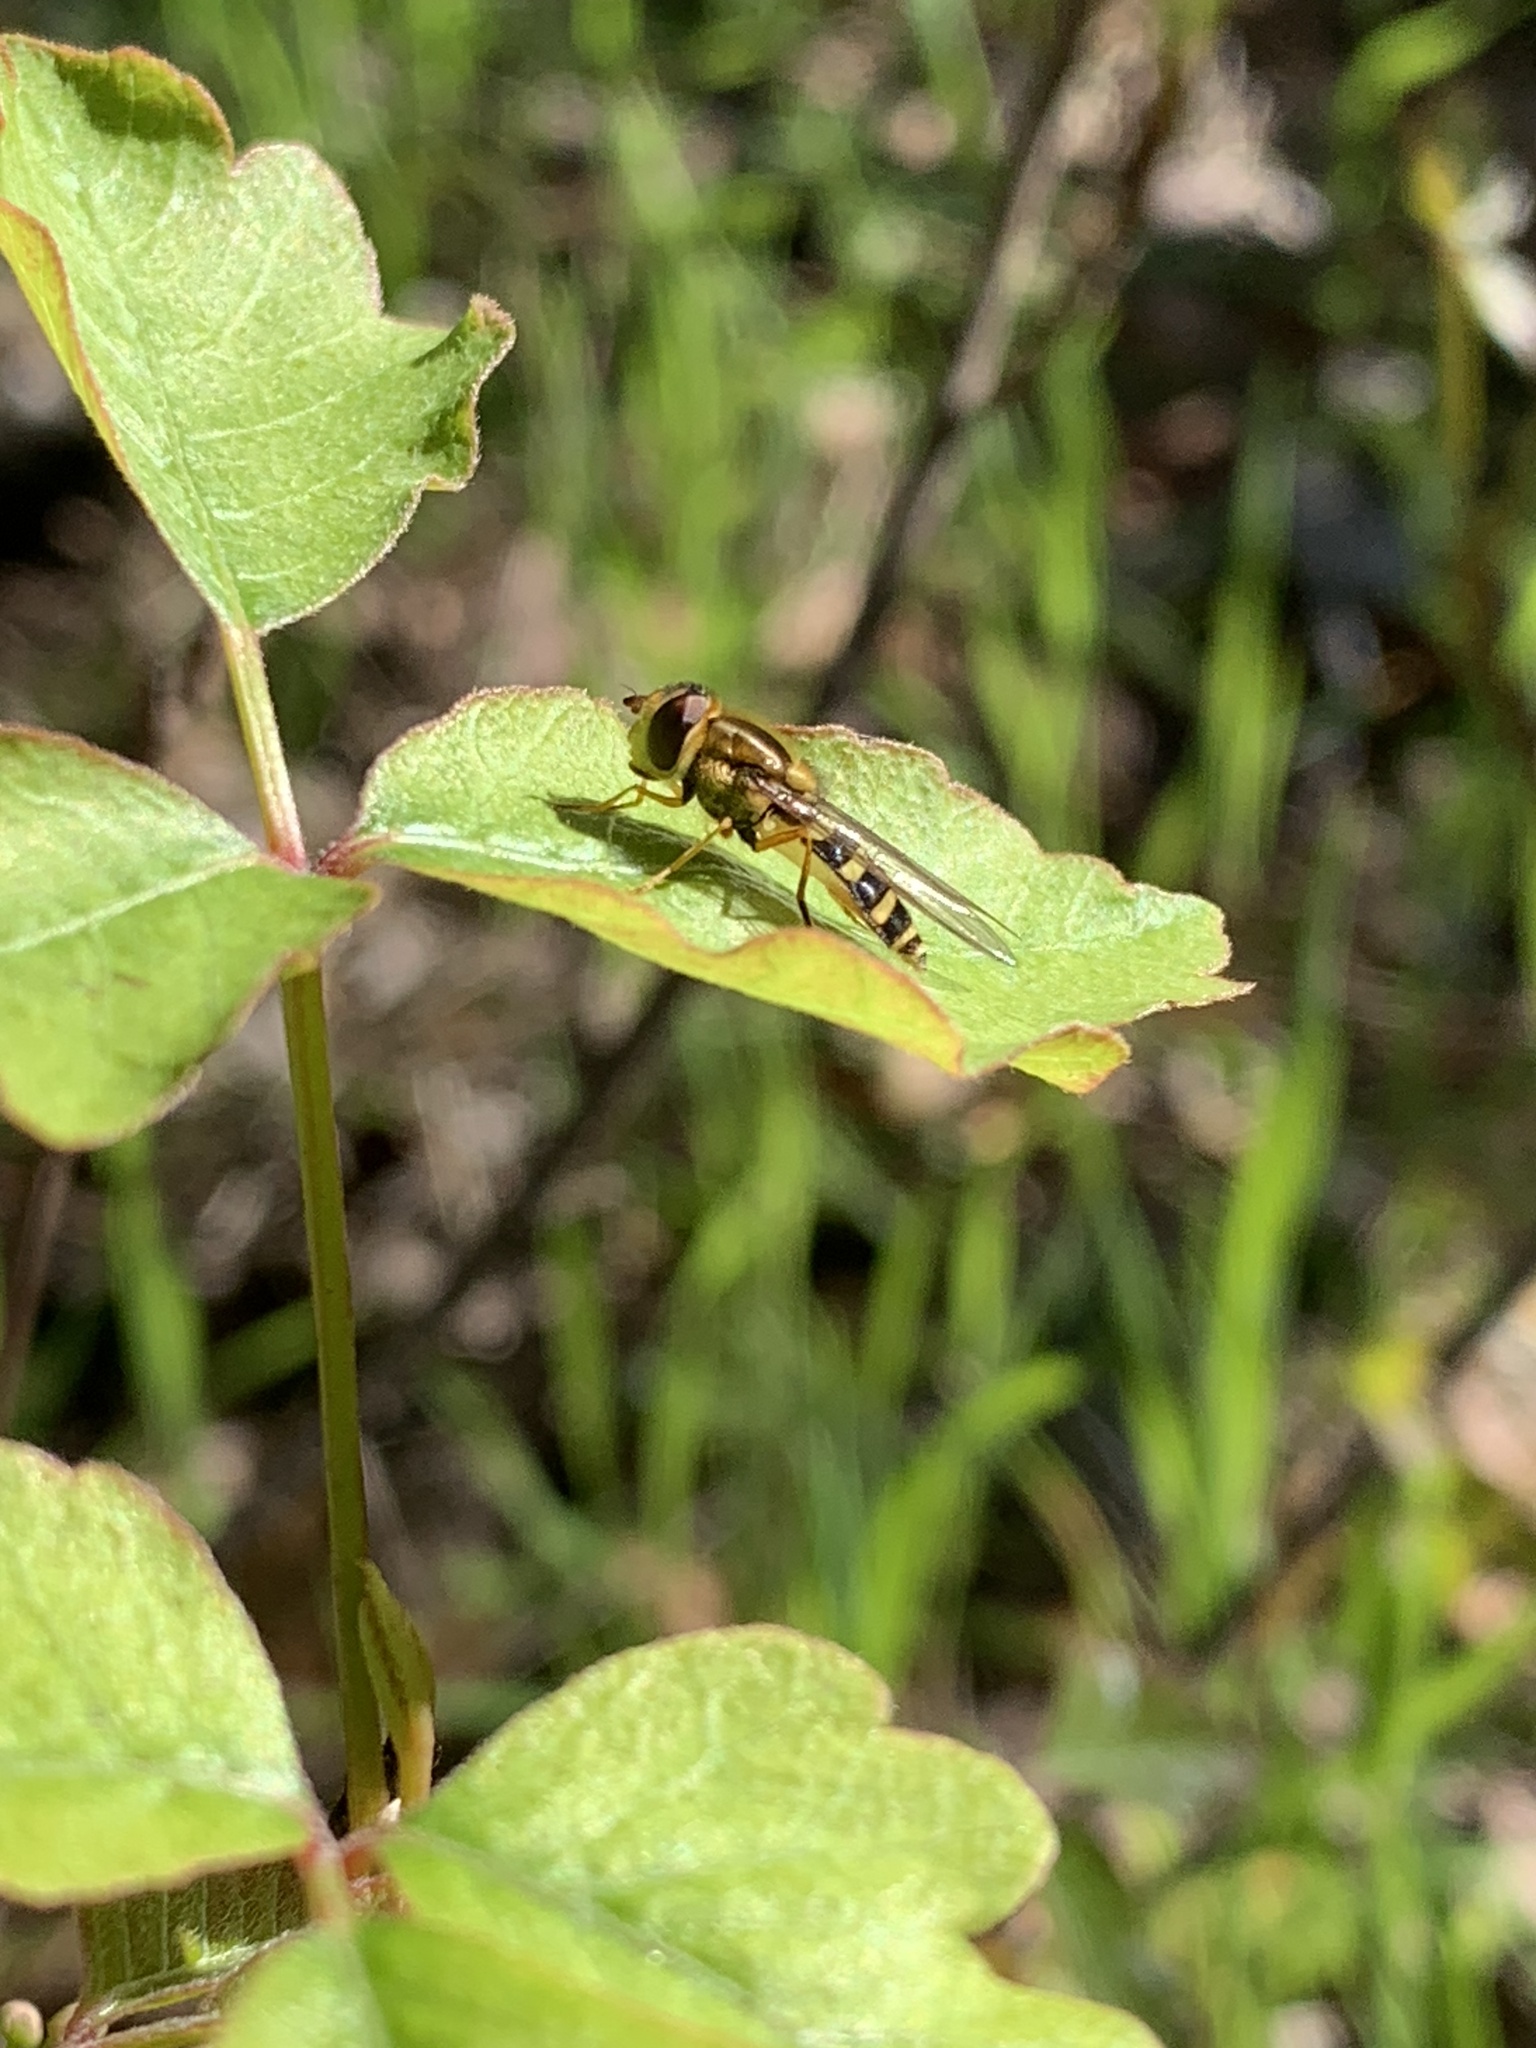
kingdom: Animalia
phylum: Arthropoda
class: Insecta
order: Diptera
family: Syrphidae
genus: Syrphus
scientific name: Syrphus opinator
